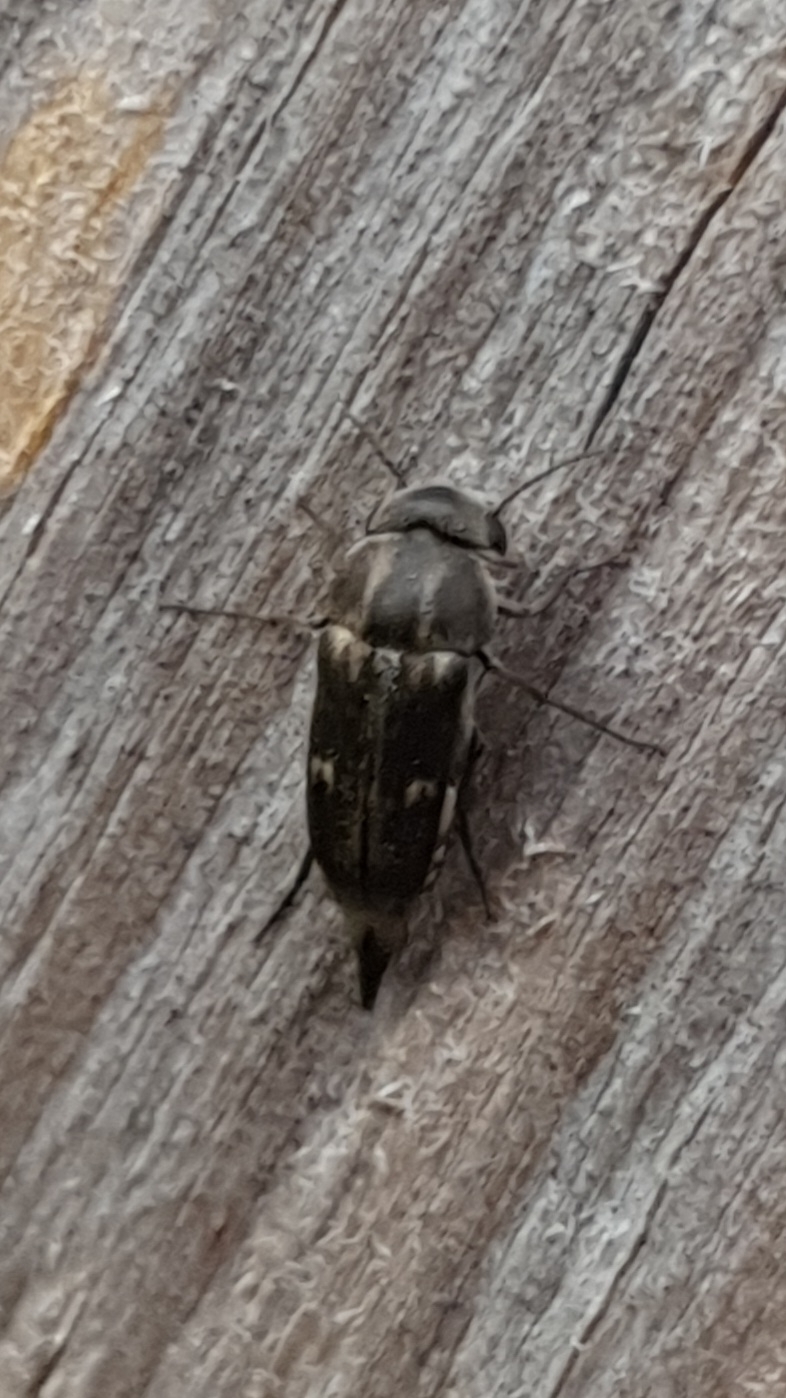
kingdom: Animalia
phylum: Arthropoda
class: Insecta
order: Coleoptera
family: Mordellidae
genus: Tomoxia
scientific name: Tomoxia bucephala
